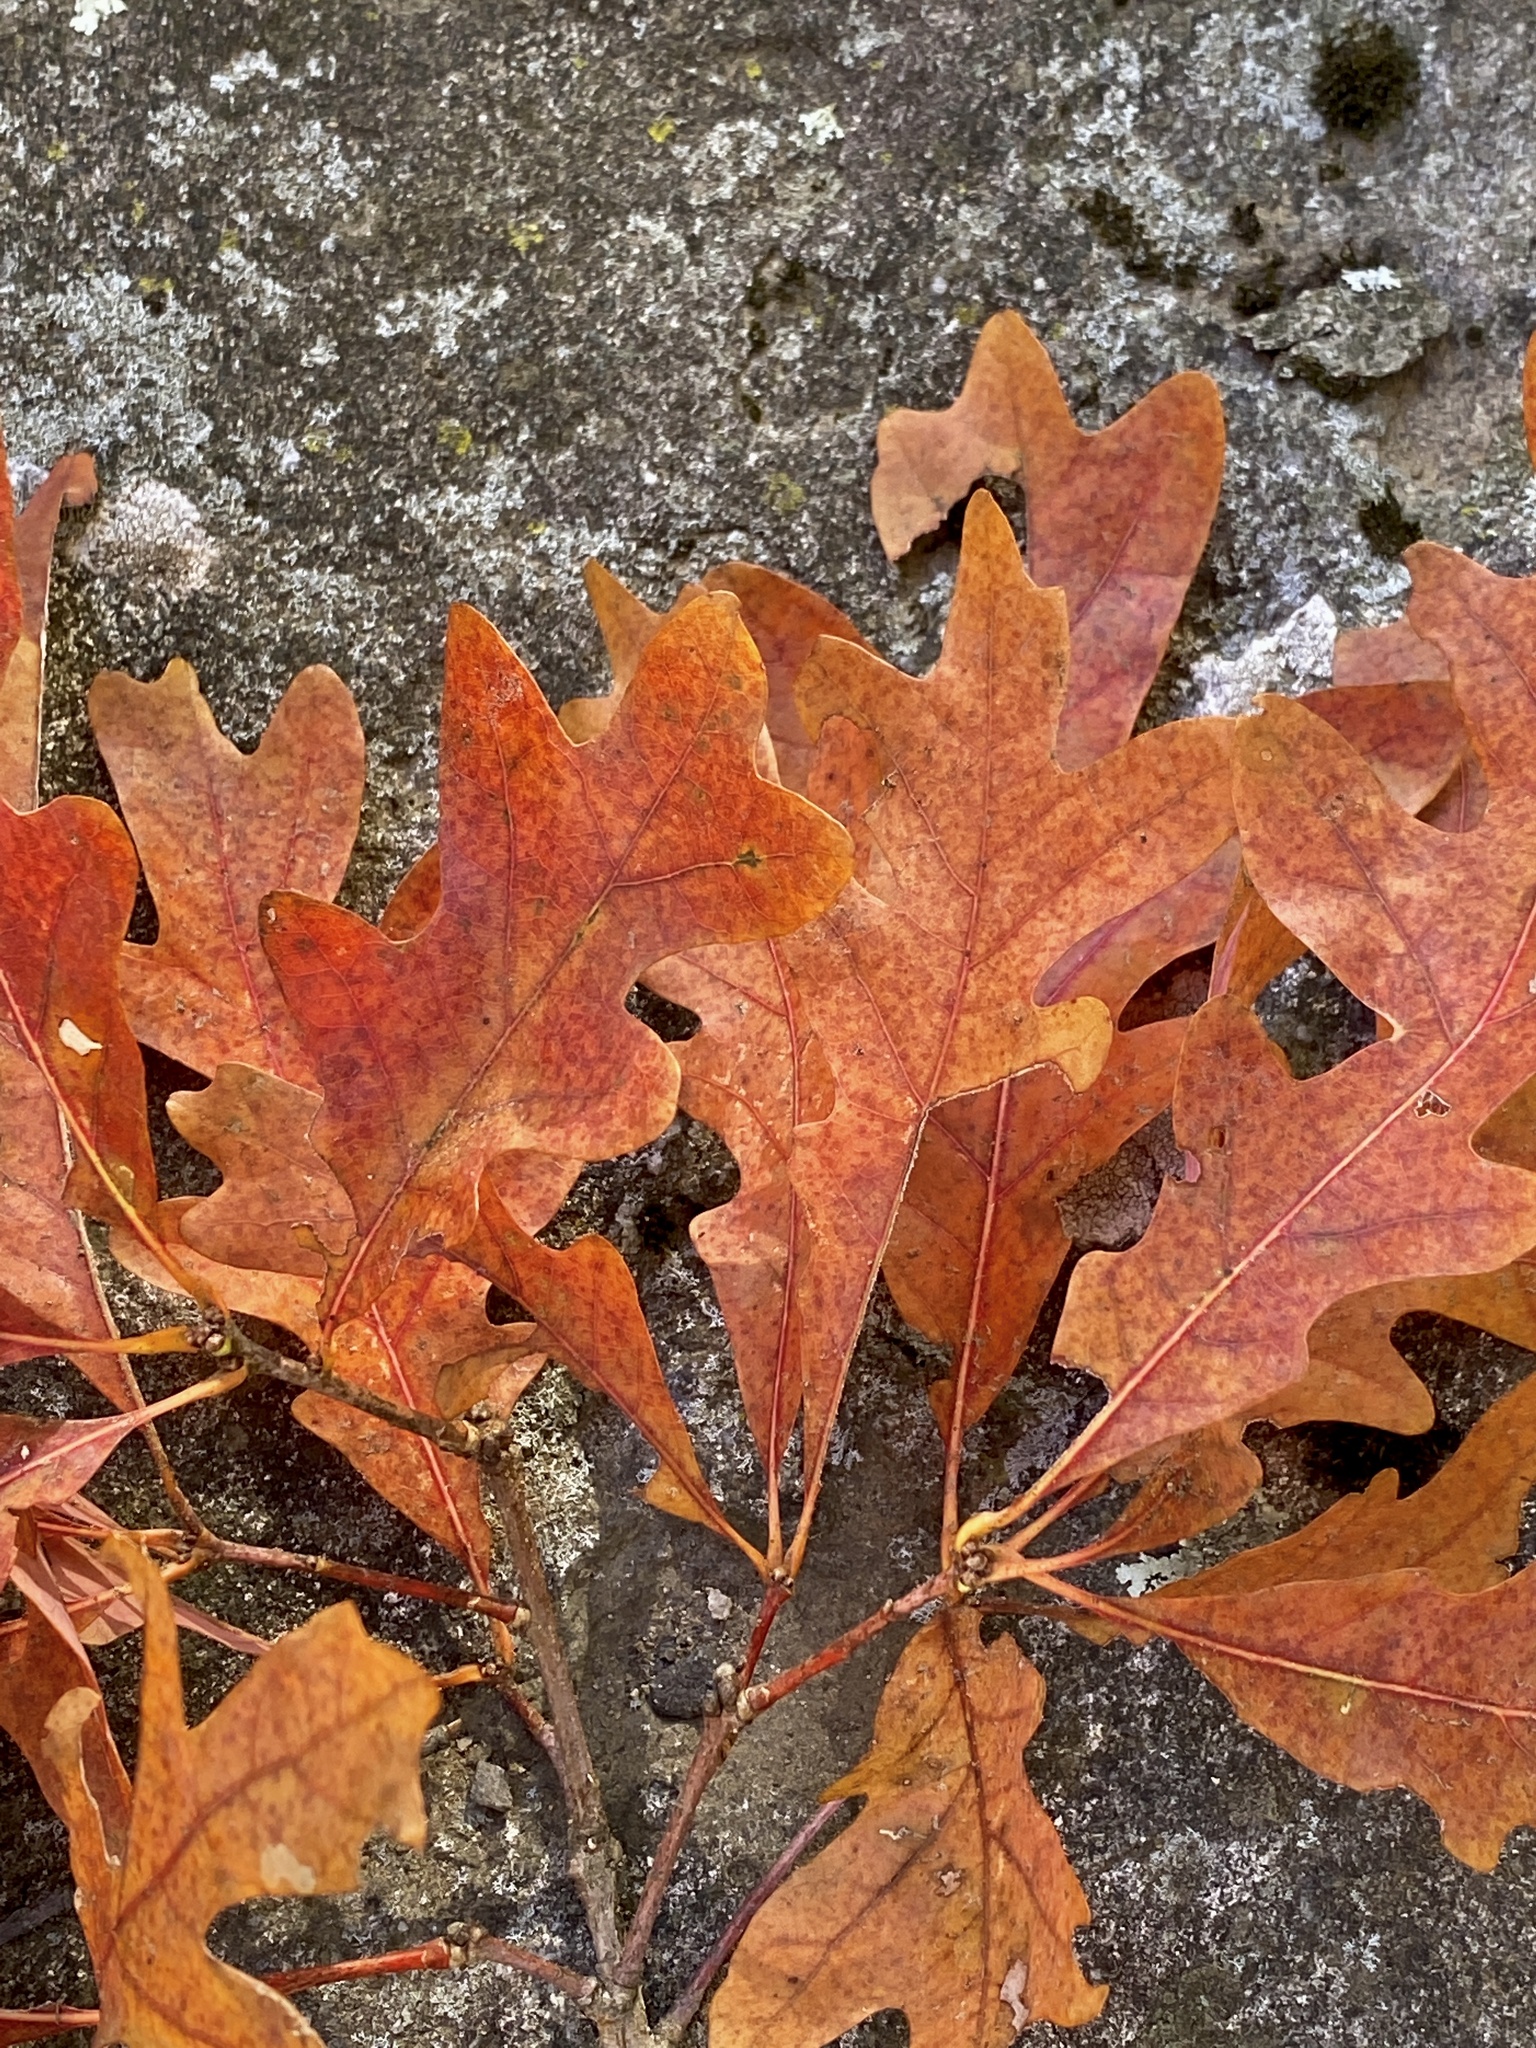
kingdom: Plantae
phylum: Tracheophyta
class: Magnoliopsida
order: Fagales
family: Fagaceae
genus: Quercus
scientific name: Quercus alba
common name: White oak
